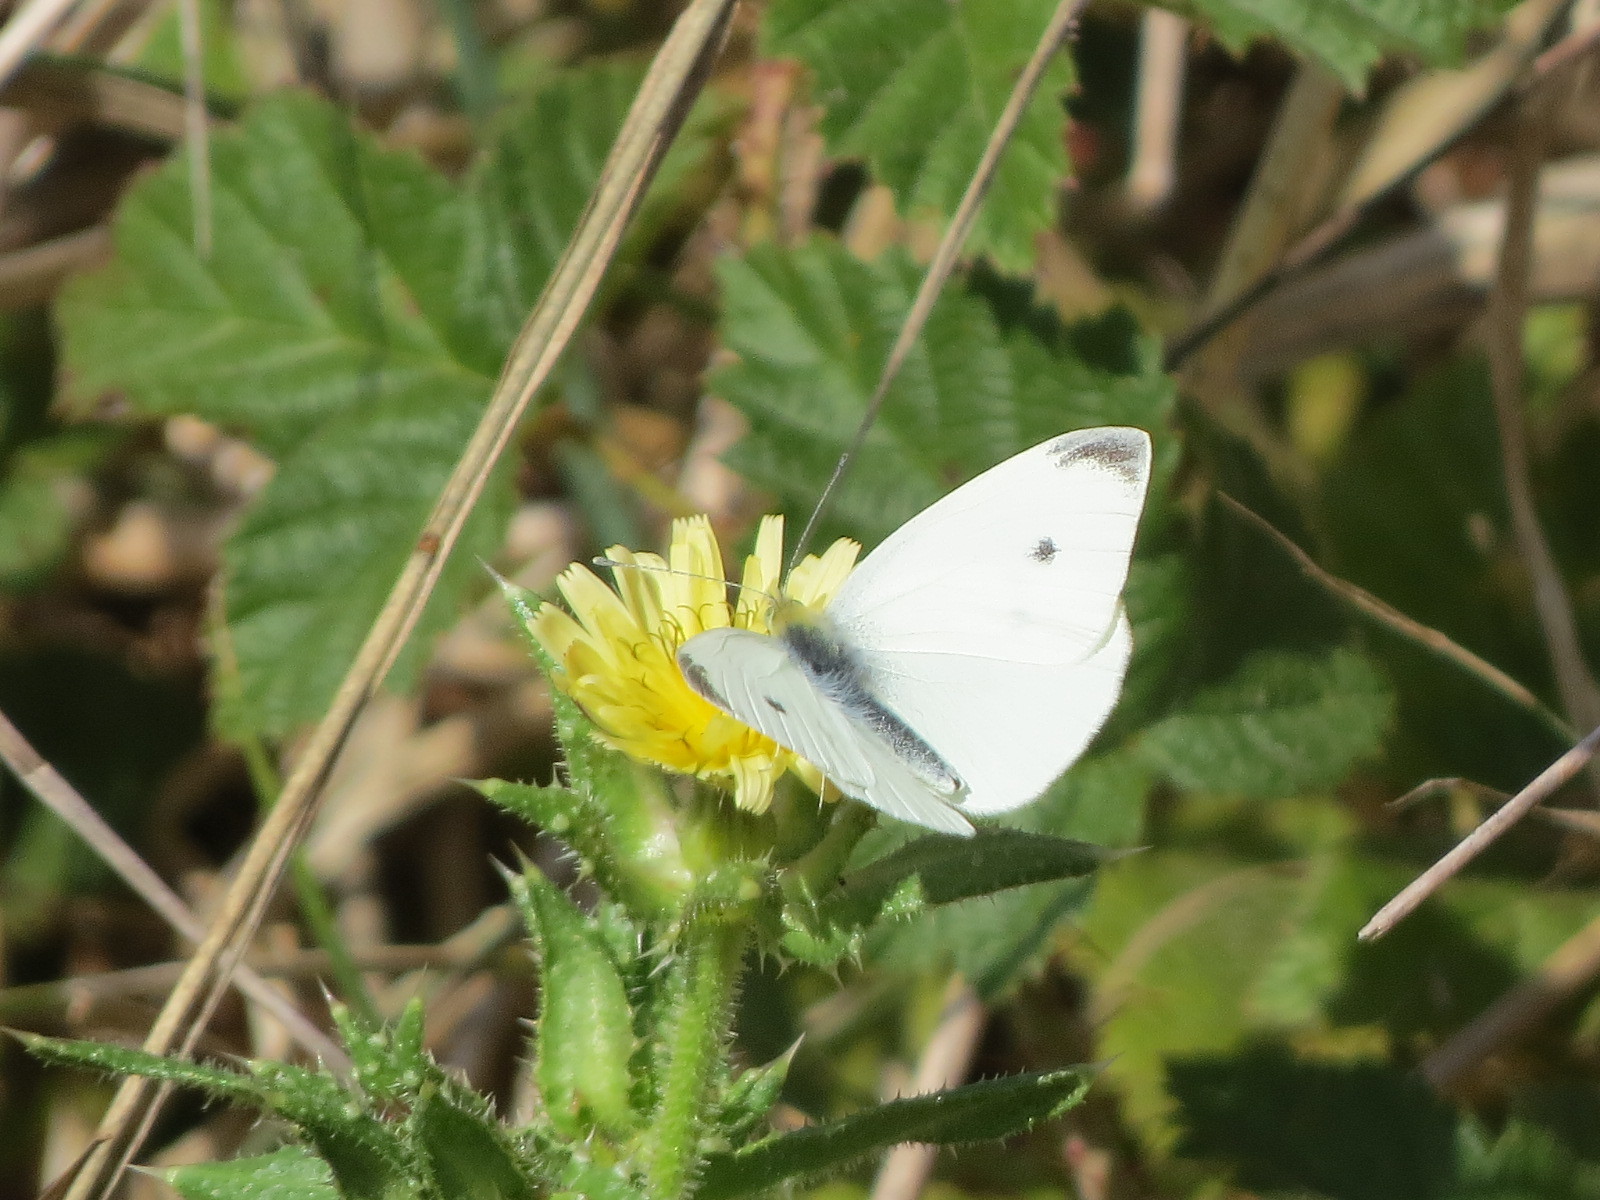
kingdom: Animalia
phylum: Arthropoda
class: Insecta
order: Lepidoptera
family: Pieridae
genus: Pieris
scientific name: Pieris rapae
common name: Small white
